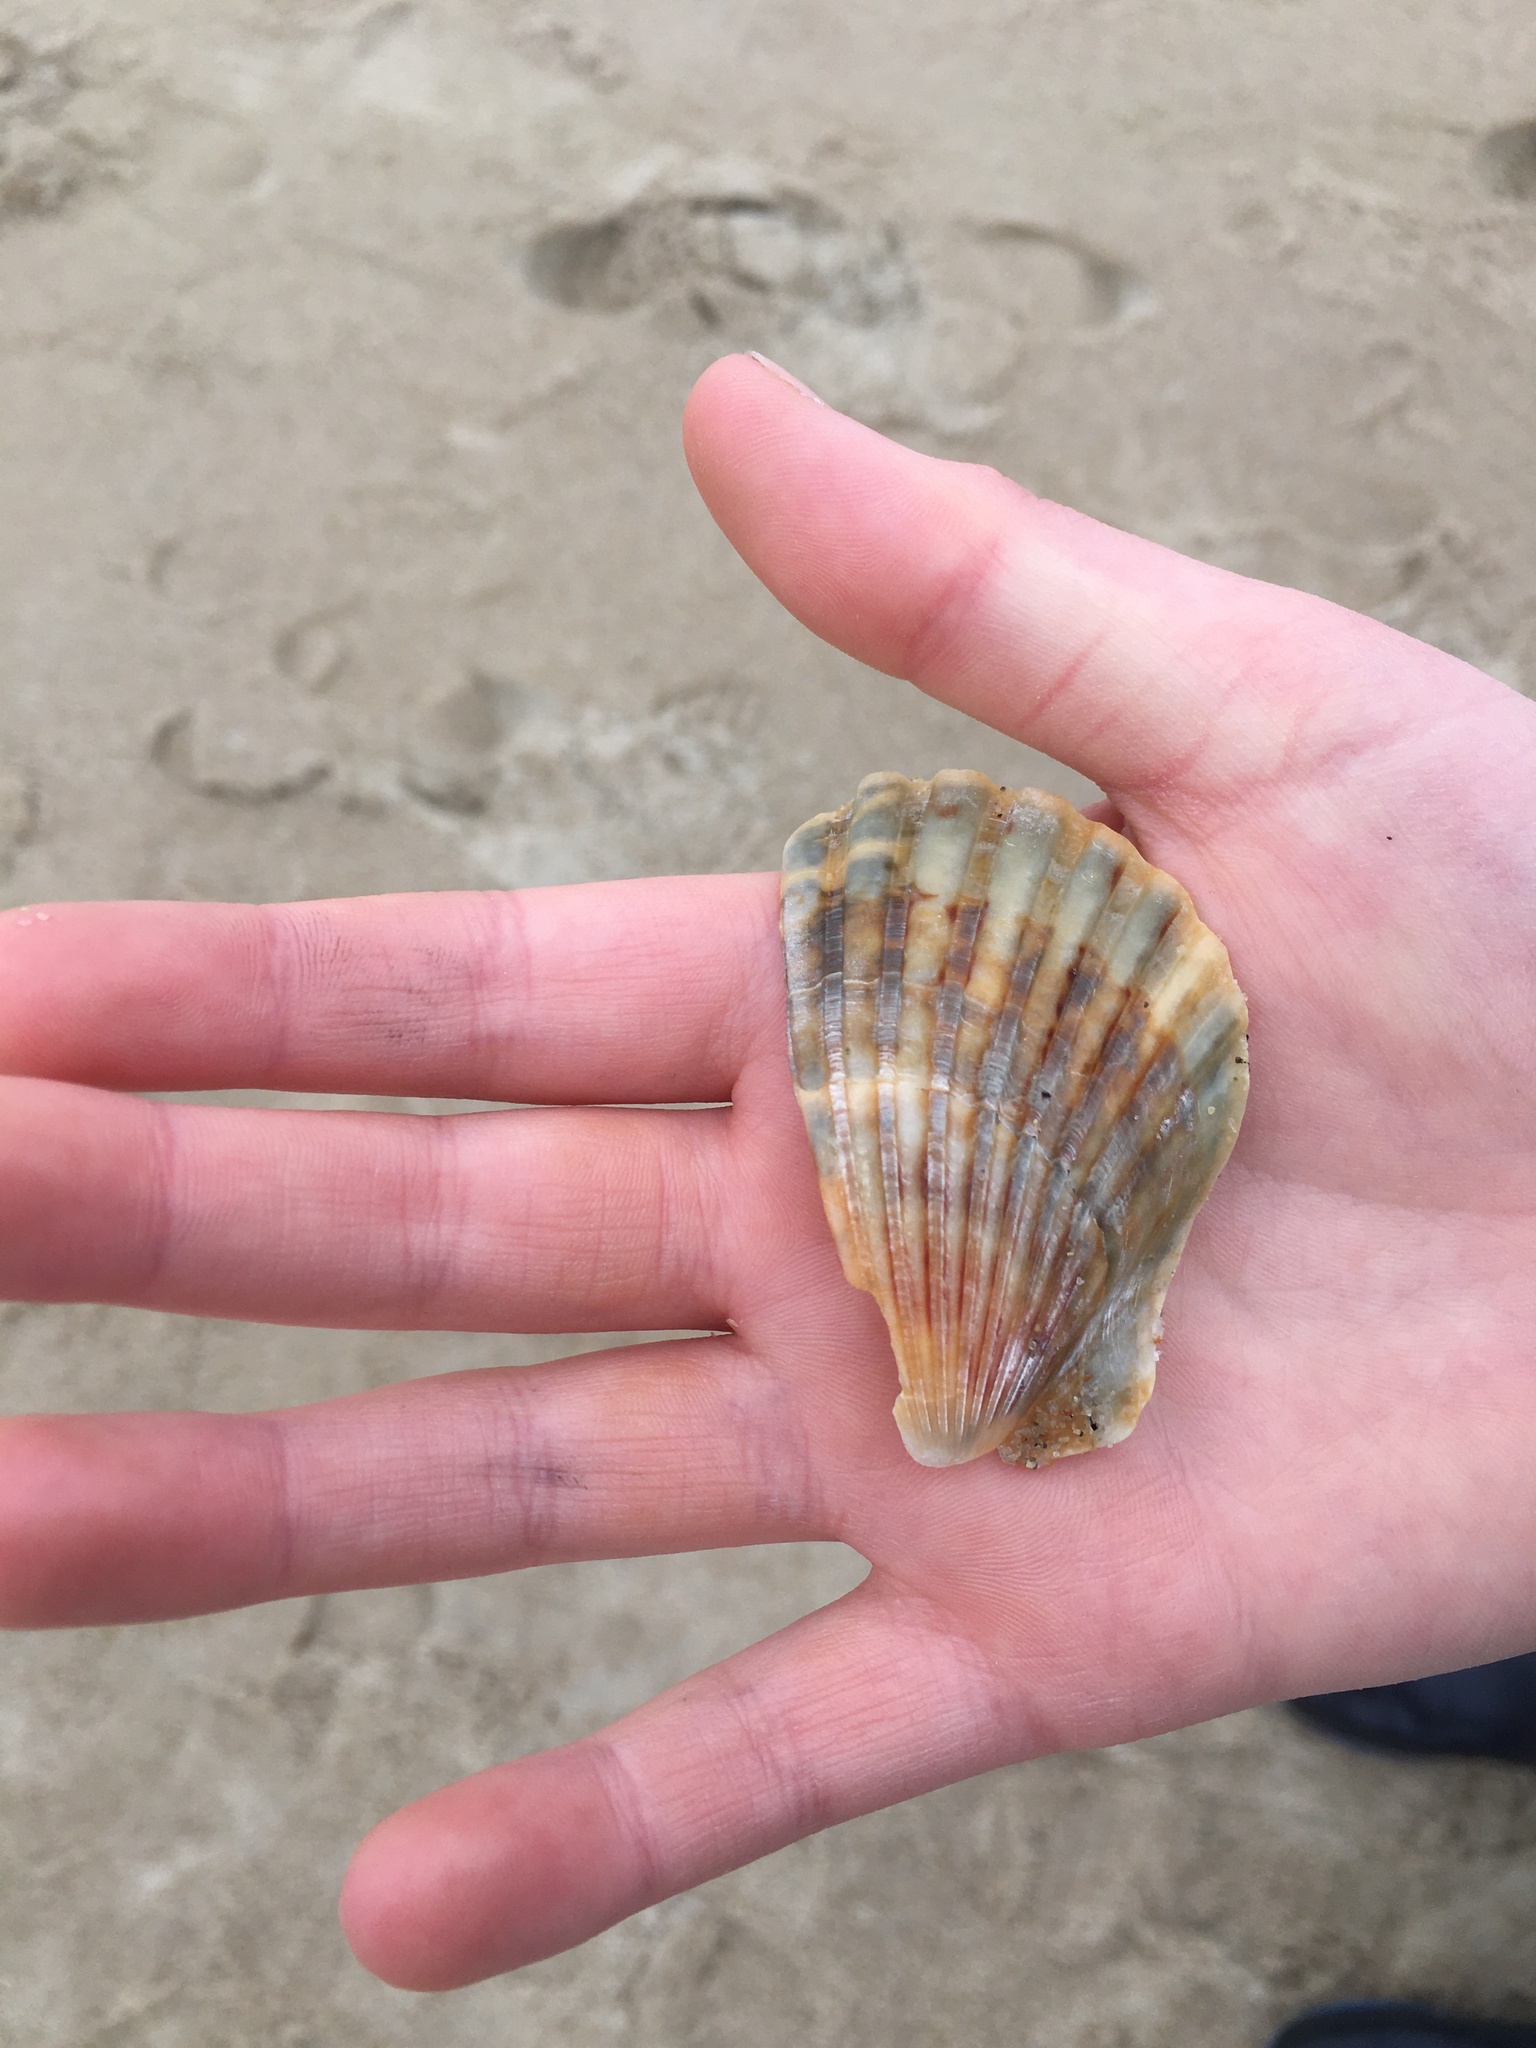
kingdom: Animalia
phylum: Mollusca
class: Bivalvia
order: Pectinida
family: Pectinidae
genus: Argopecten
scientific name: Argopecten irradians
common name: Atlantic bay scallop
